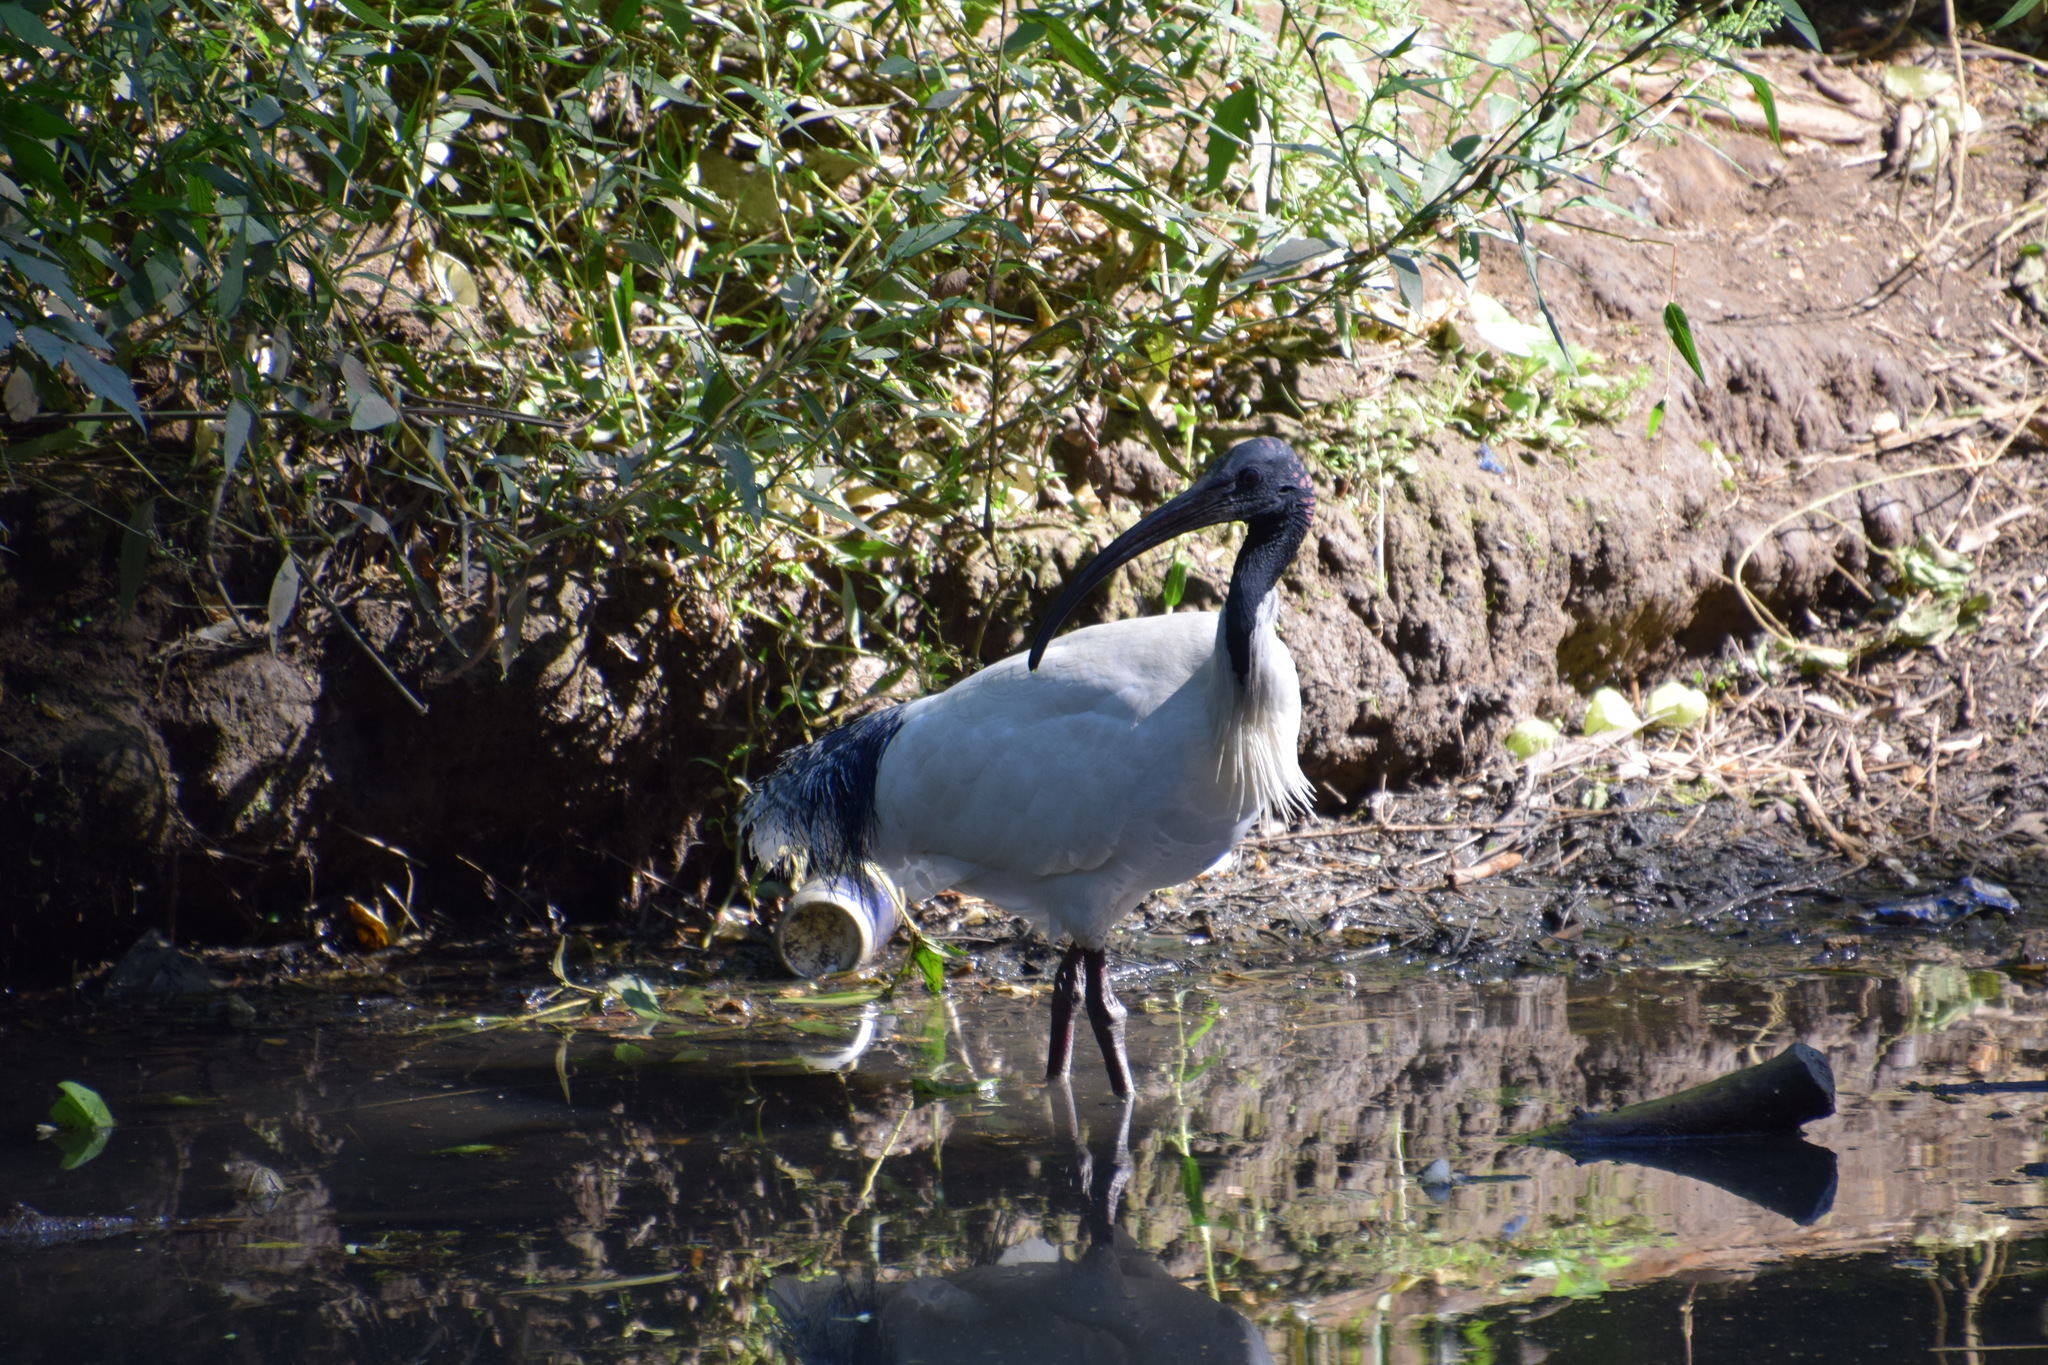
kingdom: Animalia
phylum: Chordata
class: Aves
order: Pelecaniformes
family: Threskiornithidae
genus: Threskiornis
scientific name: Threskiornis molucca
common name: Australian white ibis
